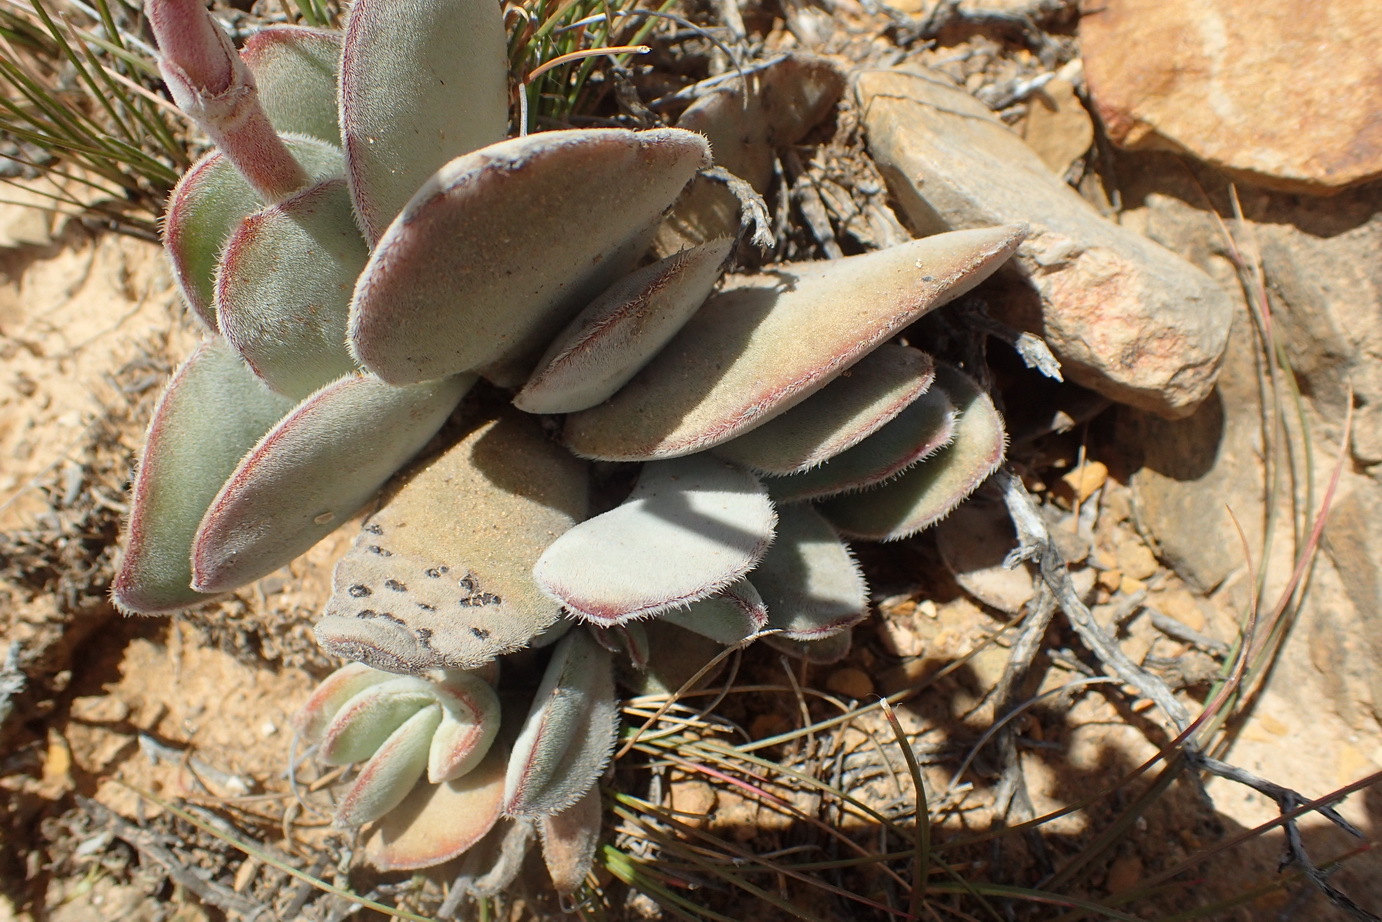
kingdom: Plantae
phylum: Tracheophyta
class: Magnoliopsida
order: Saxifragales
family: Crassulaceae
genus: Crassula
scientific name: Crassula cotyledonis
